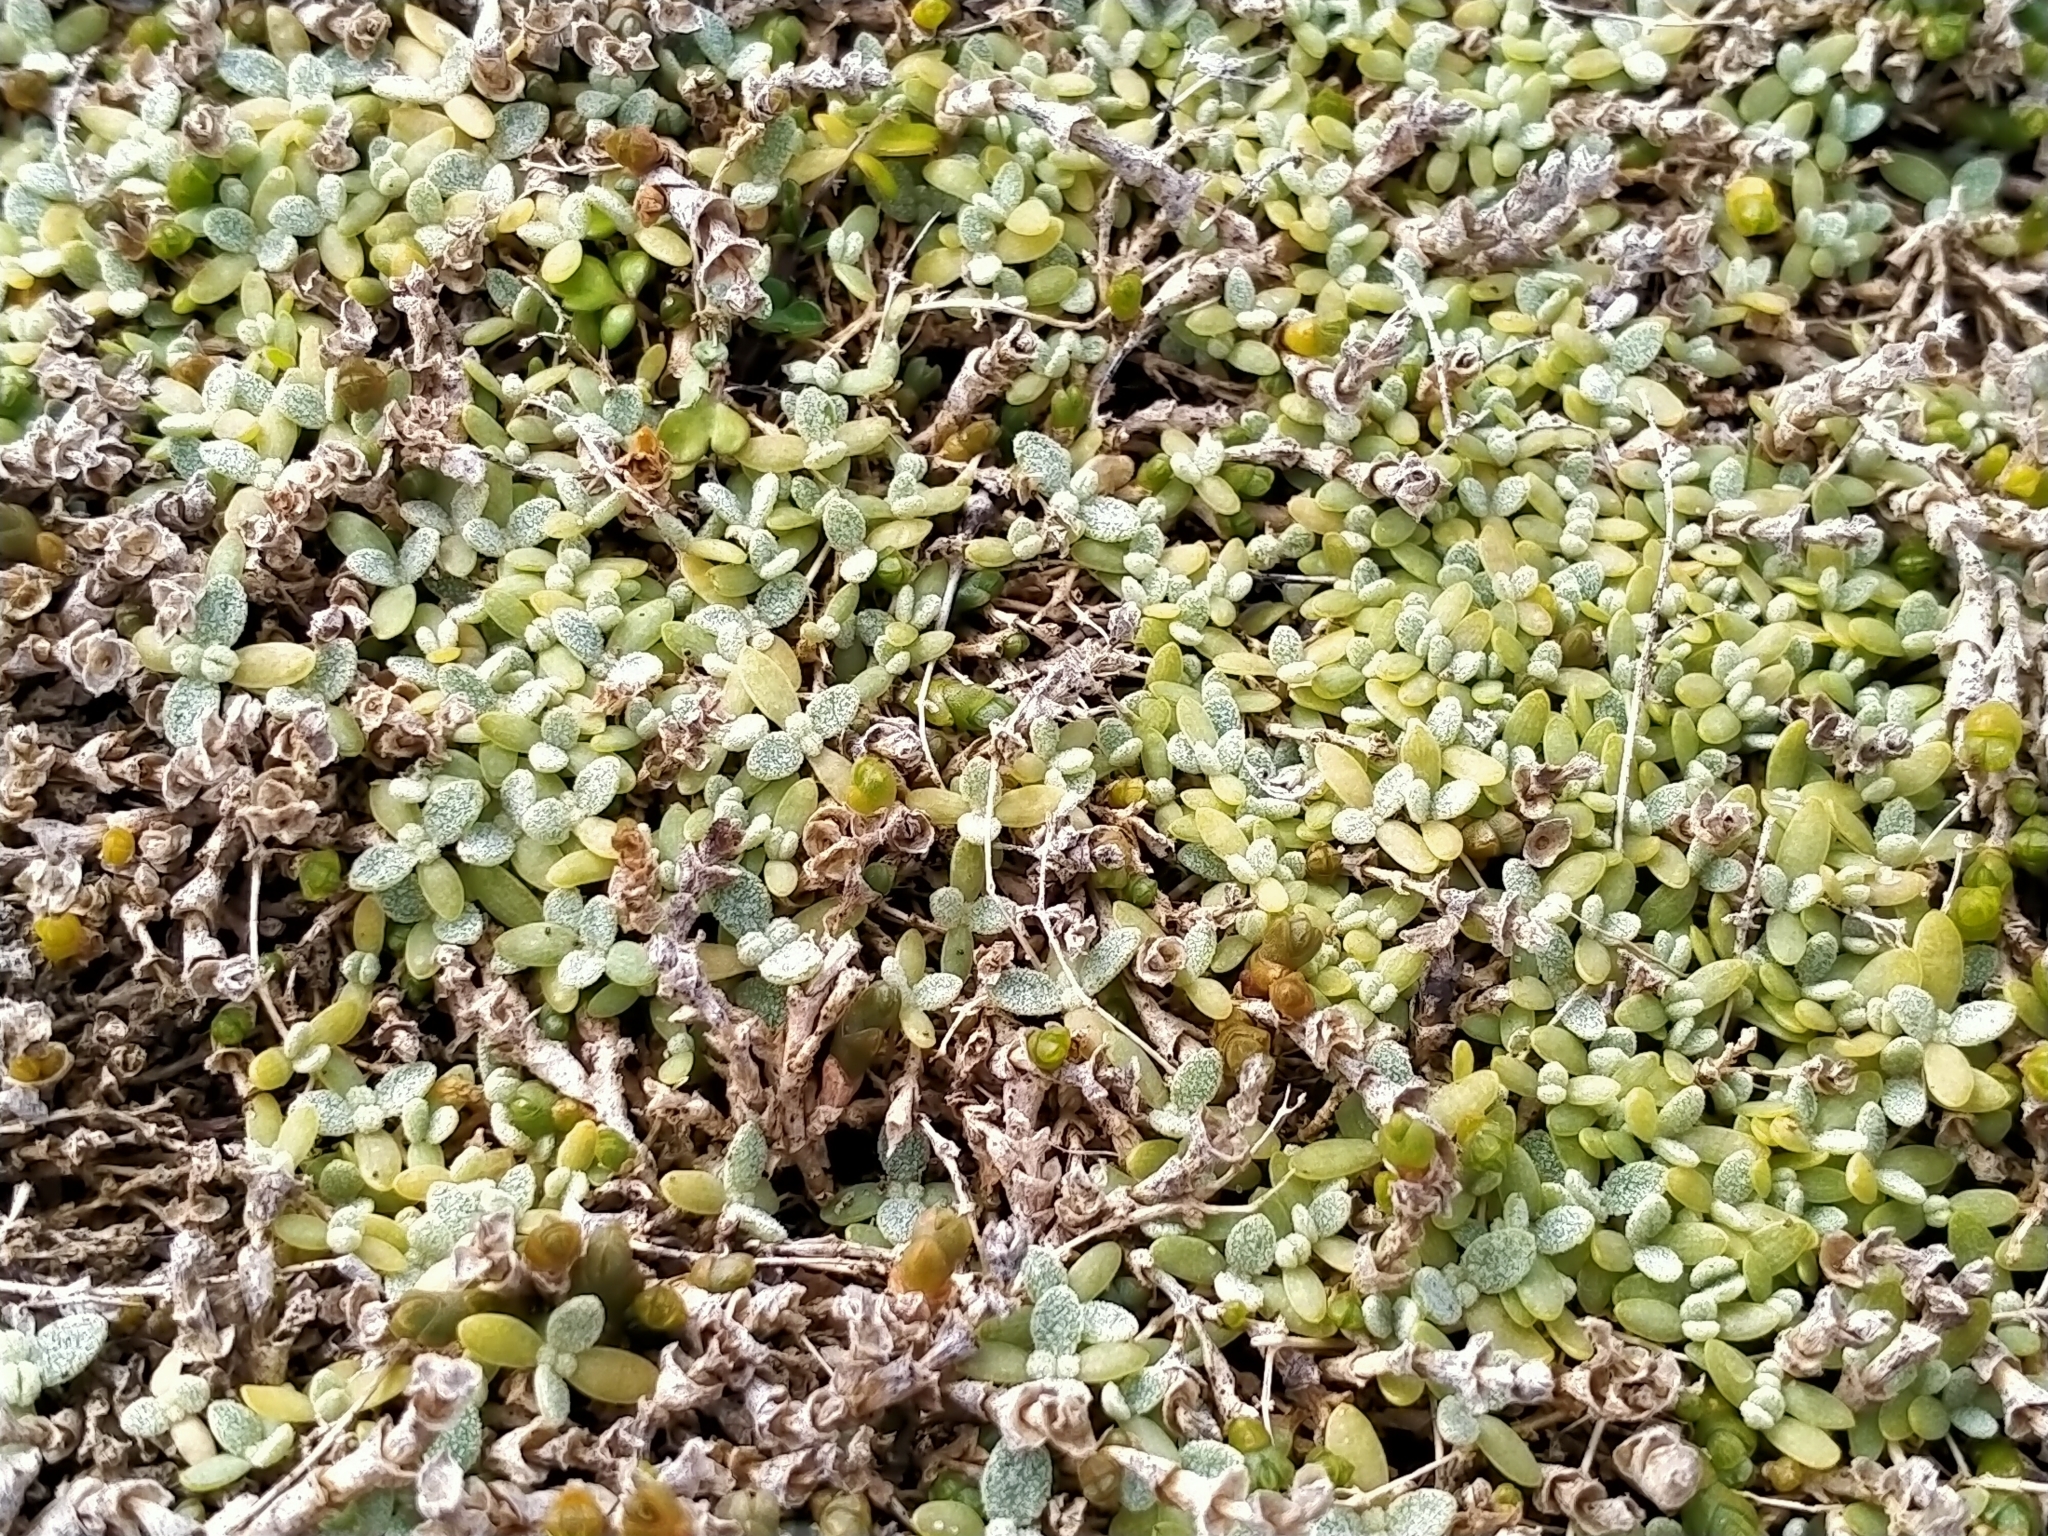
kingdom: Plantae
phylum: Tracheophyta
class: Magnoliopsida
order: Caryophyllales
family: Amaranthaceae
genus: Atriplex
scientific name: Atriplex buchananii
